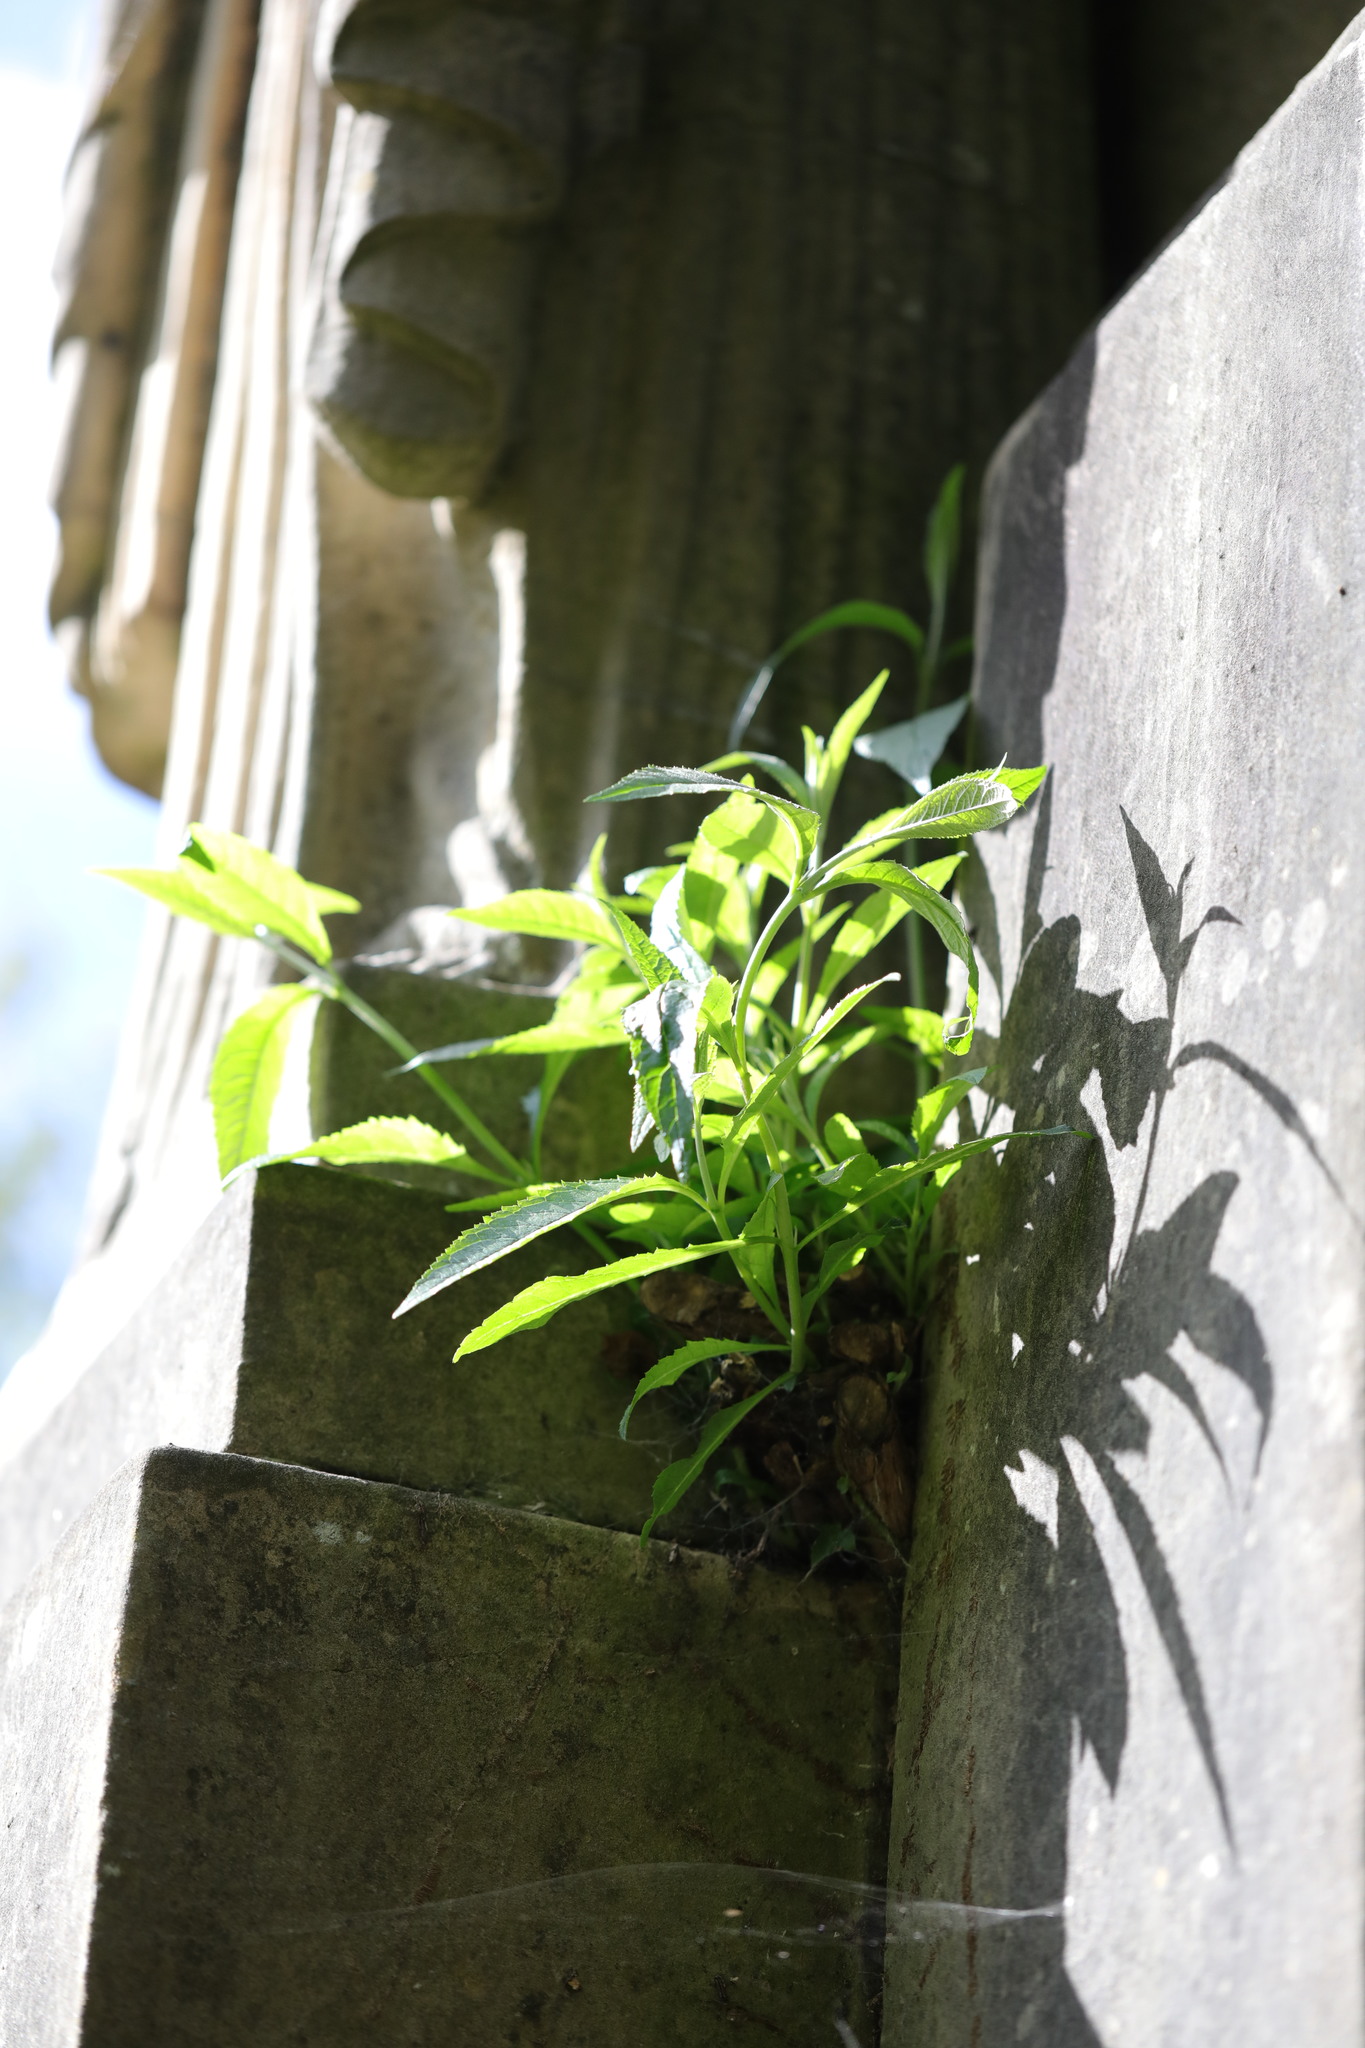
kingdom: Plantae
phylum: Tracheophyta
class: Magnoliopsida
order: Lamiales
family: Scrophulariaceae
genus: Buddleja
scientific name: Buddleja davidii
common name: Butterfly-bush
